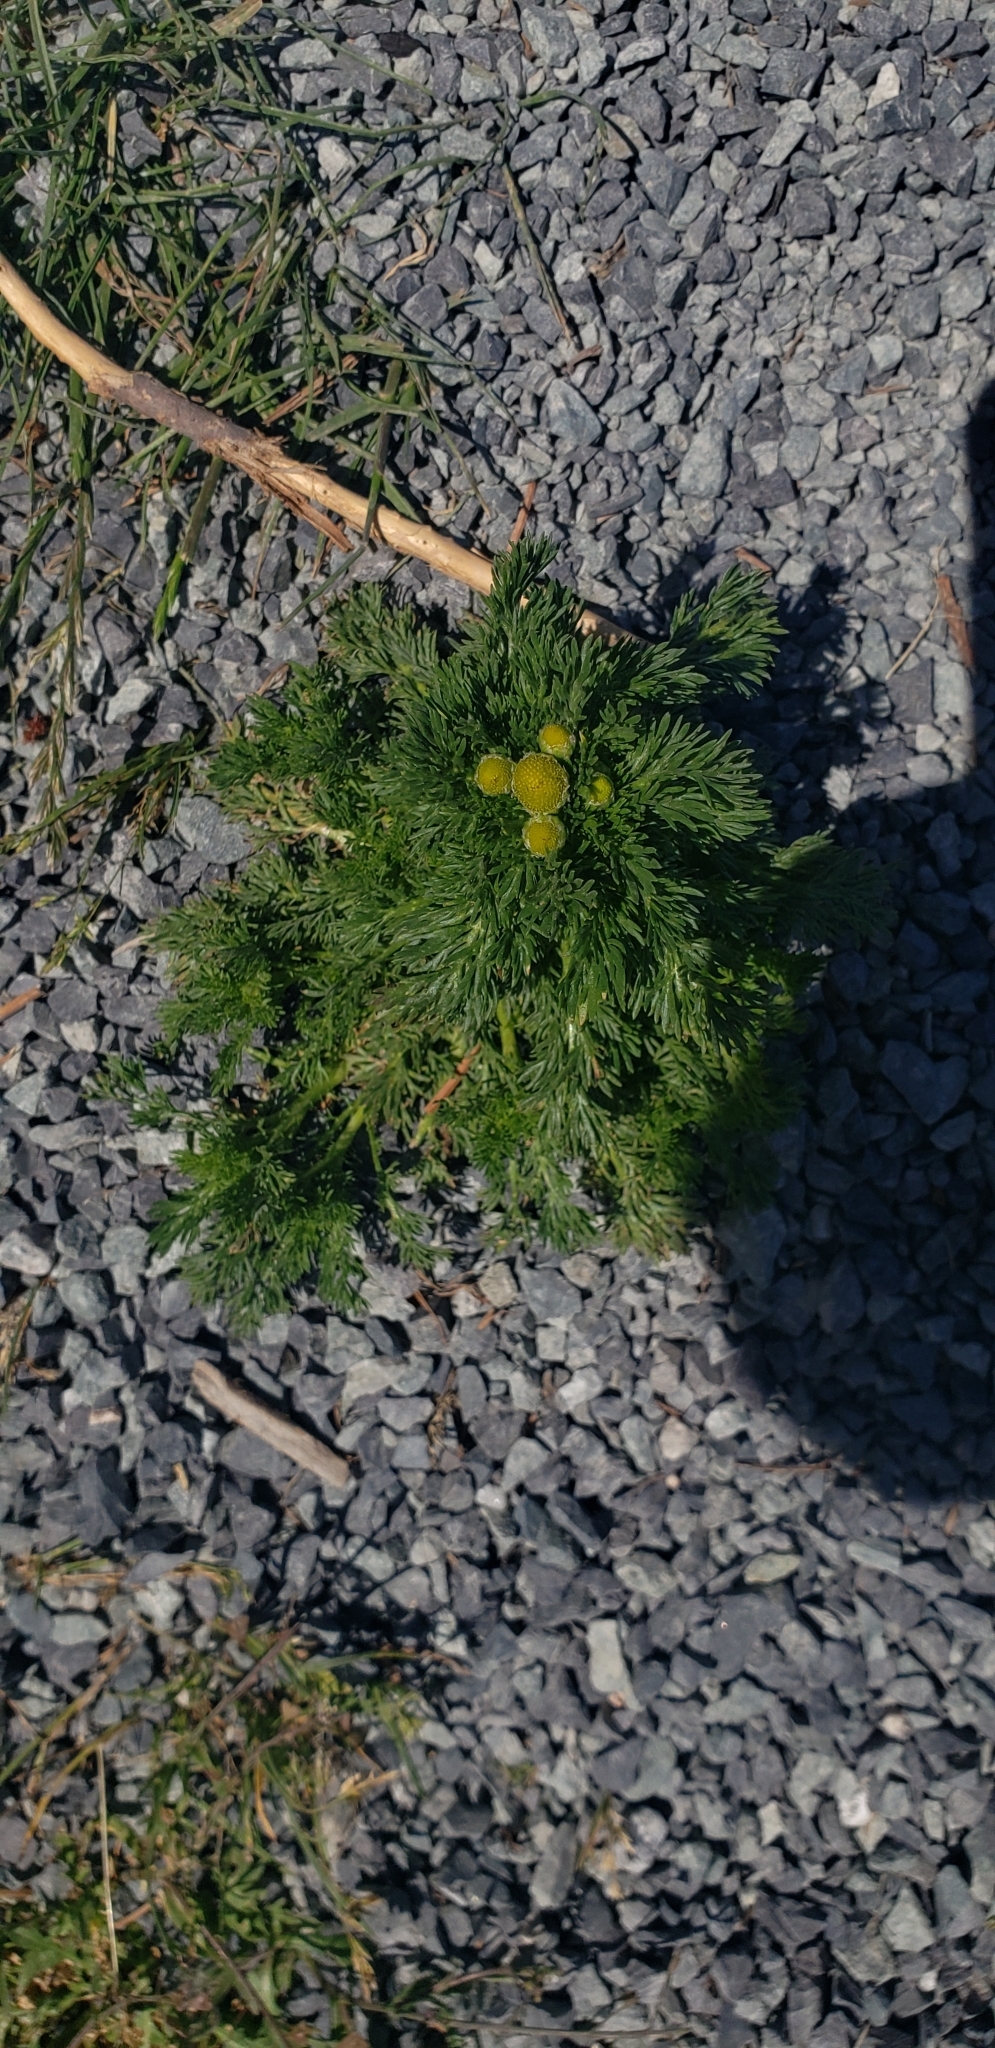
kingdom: Plantae
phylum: Tracheophyta
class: Magnoliopsida
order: Asterales
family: Asteraceae
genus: Matricaria
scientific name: Matricaria discoidea
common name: Disc mayweed
